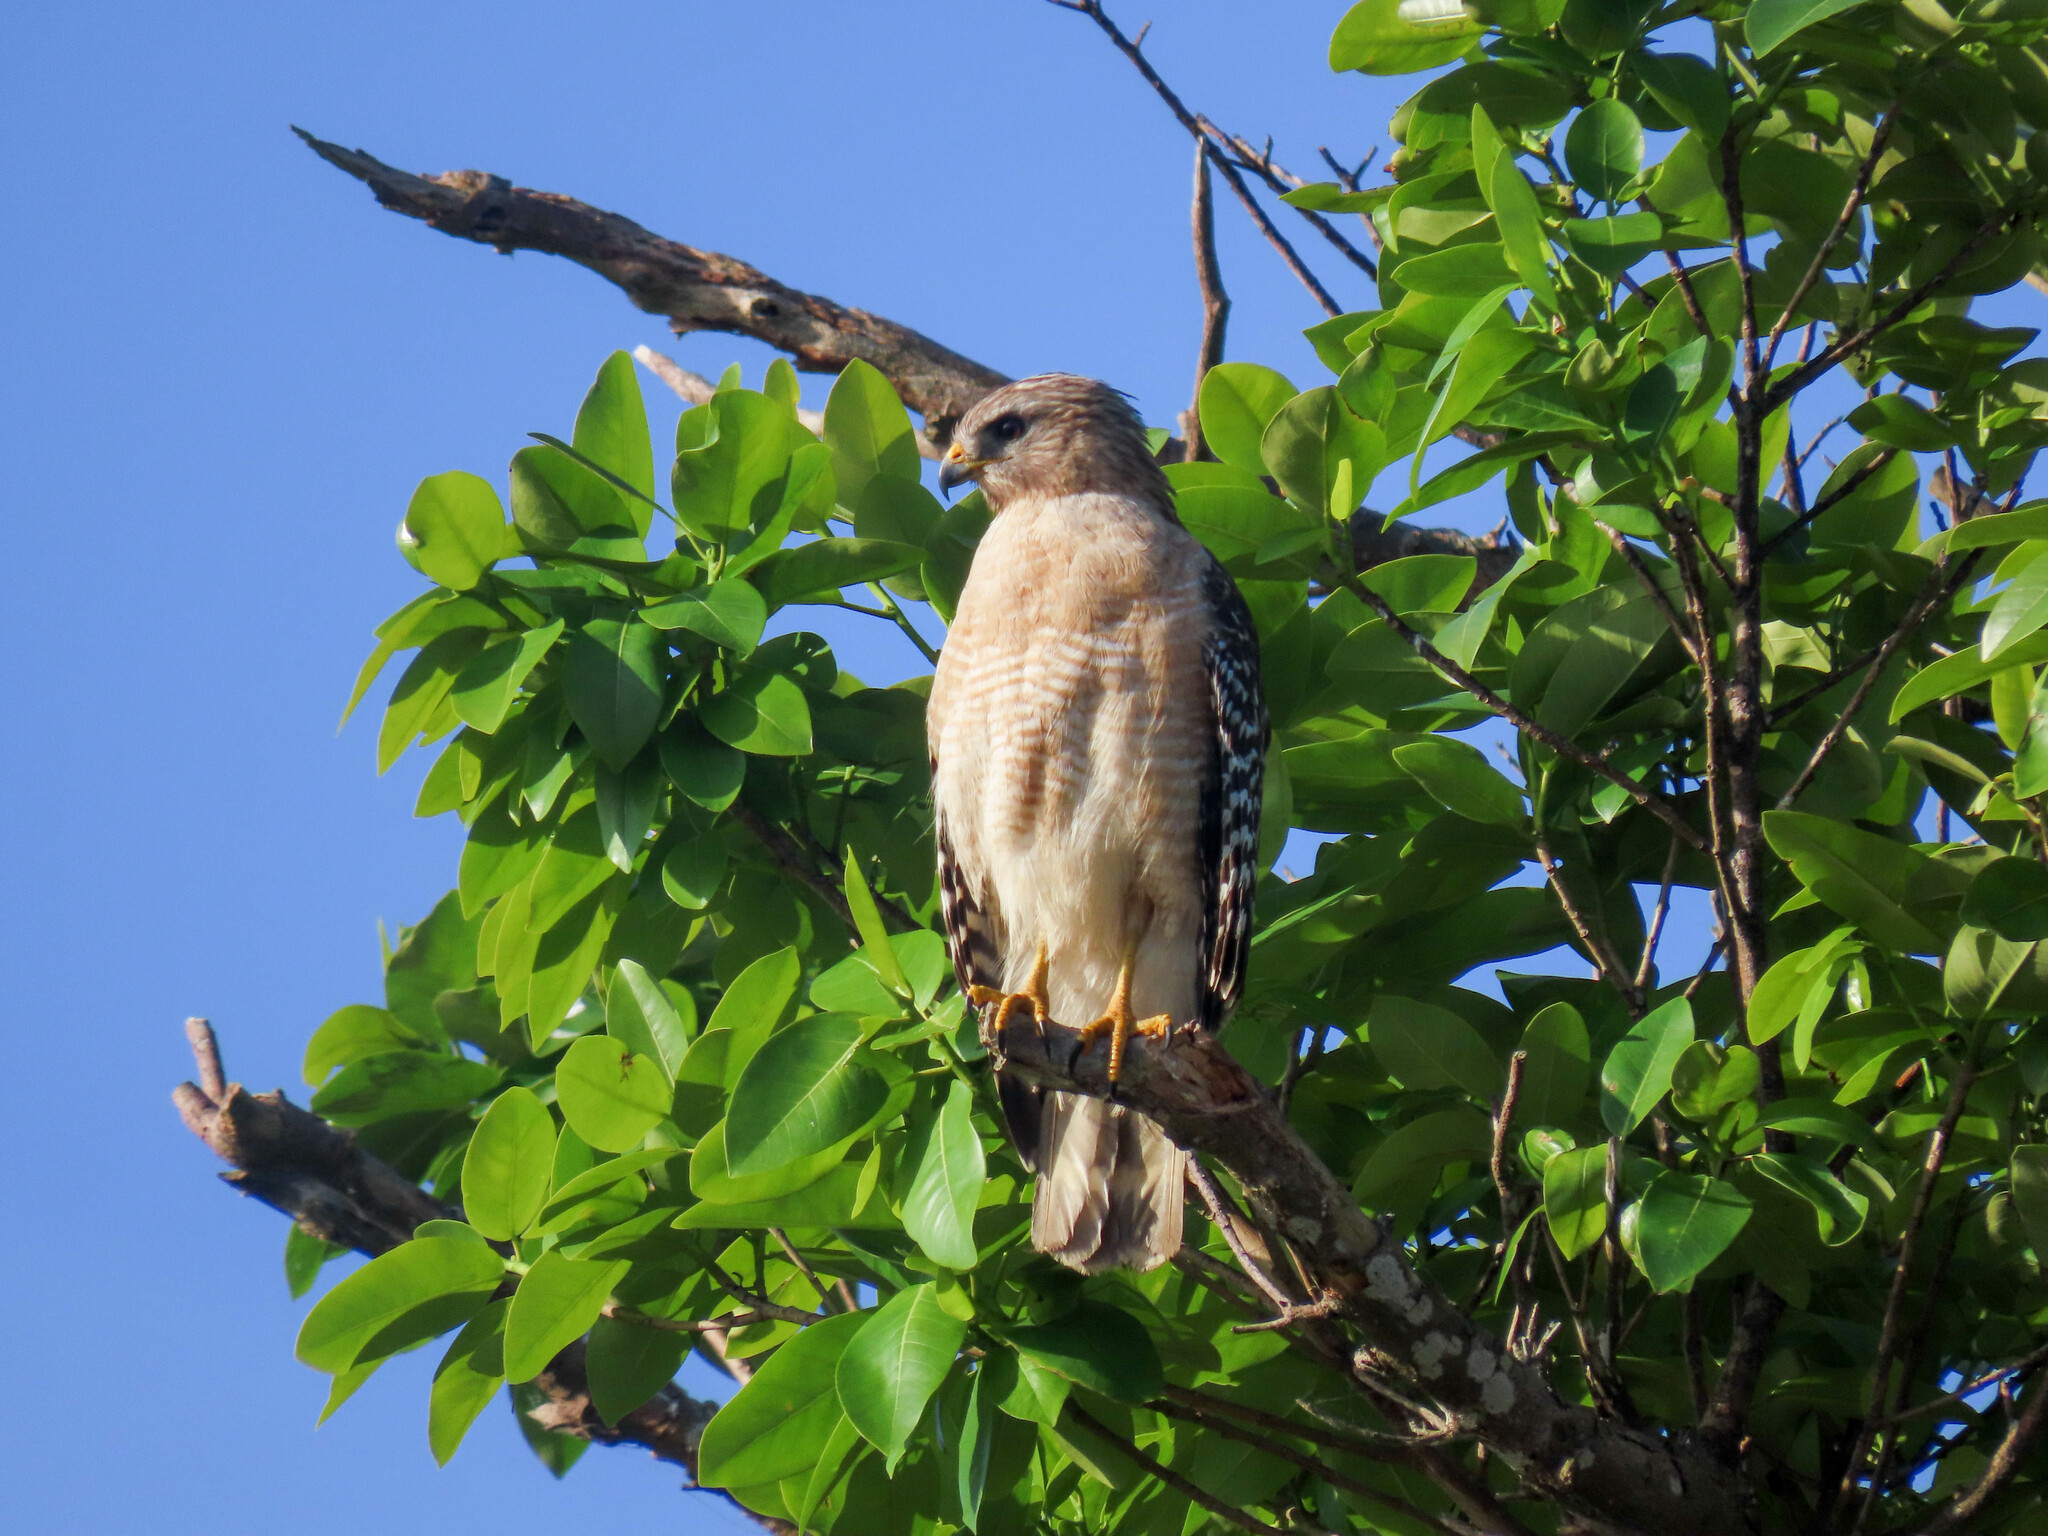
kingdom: Animalia
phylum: Chordata
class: Aves
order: Accipitriformes
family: Accipitridae
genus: Buteo
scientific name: Buteo lineatus
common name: Red-shouldered hawk
